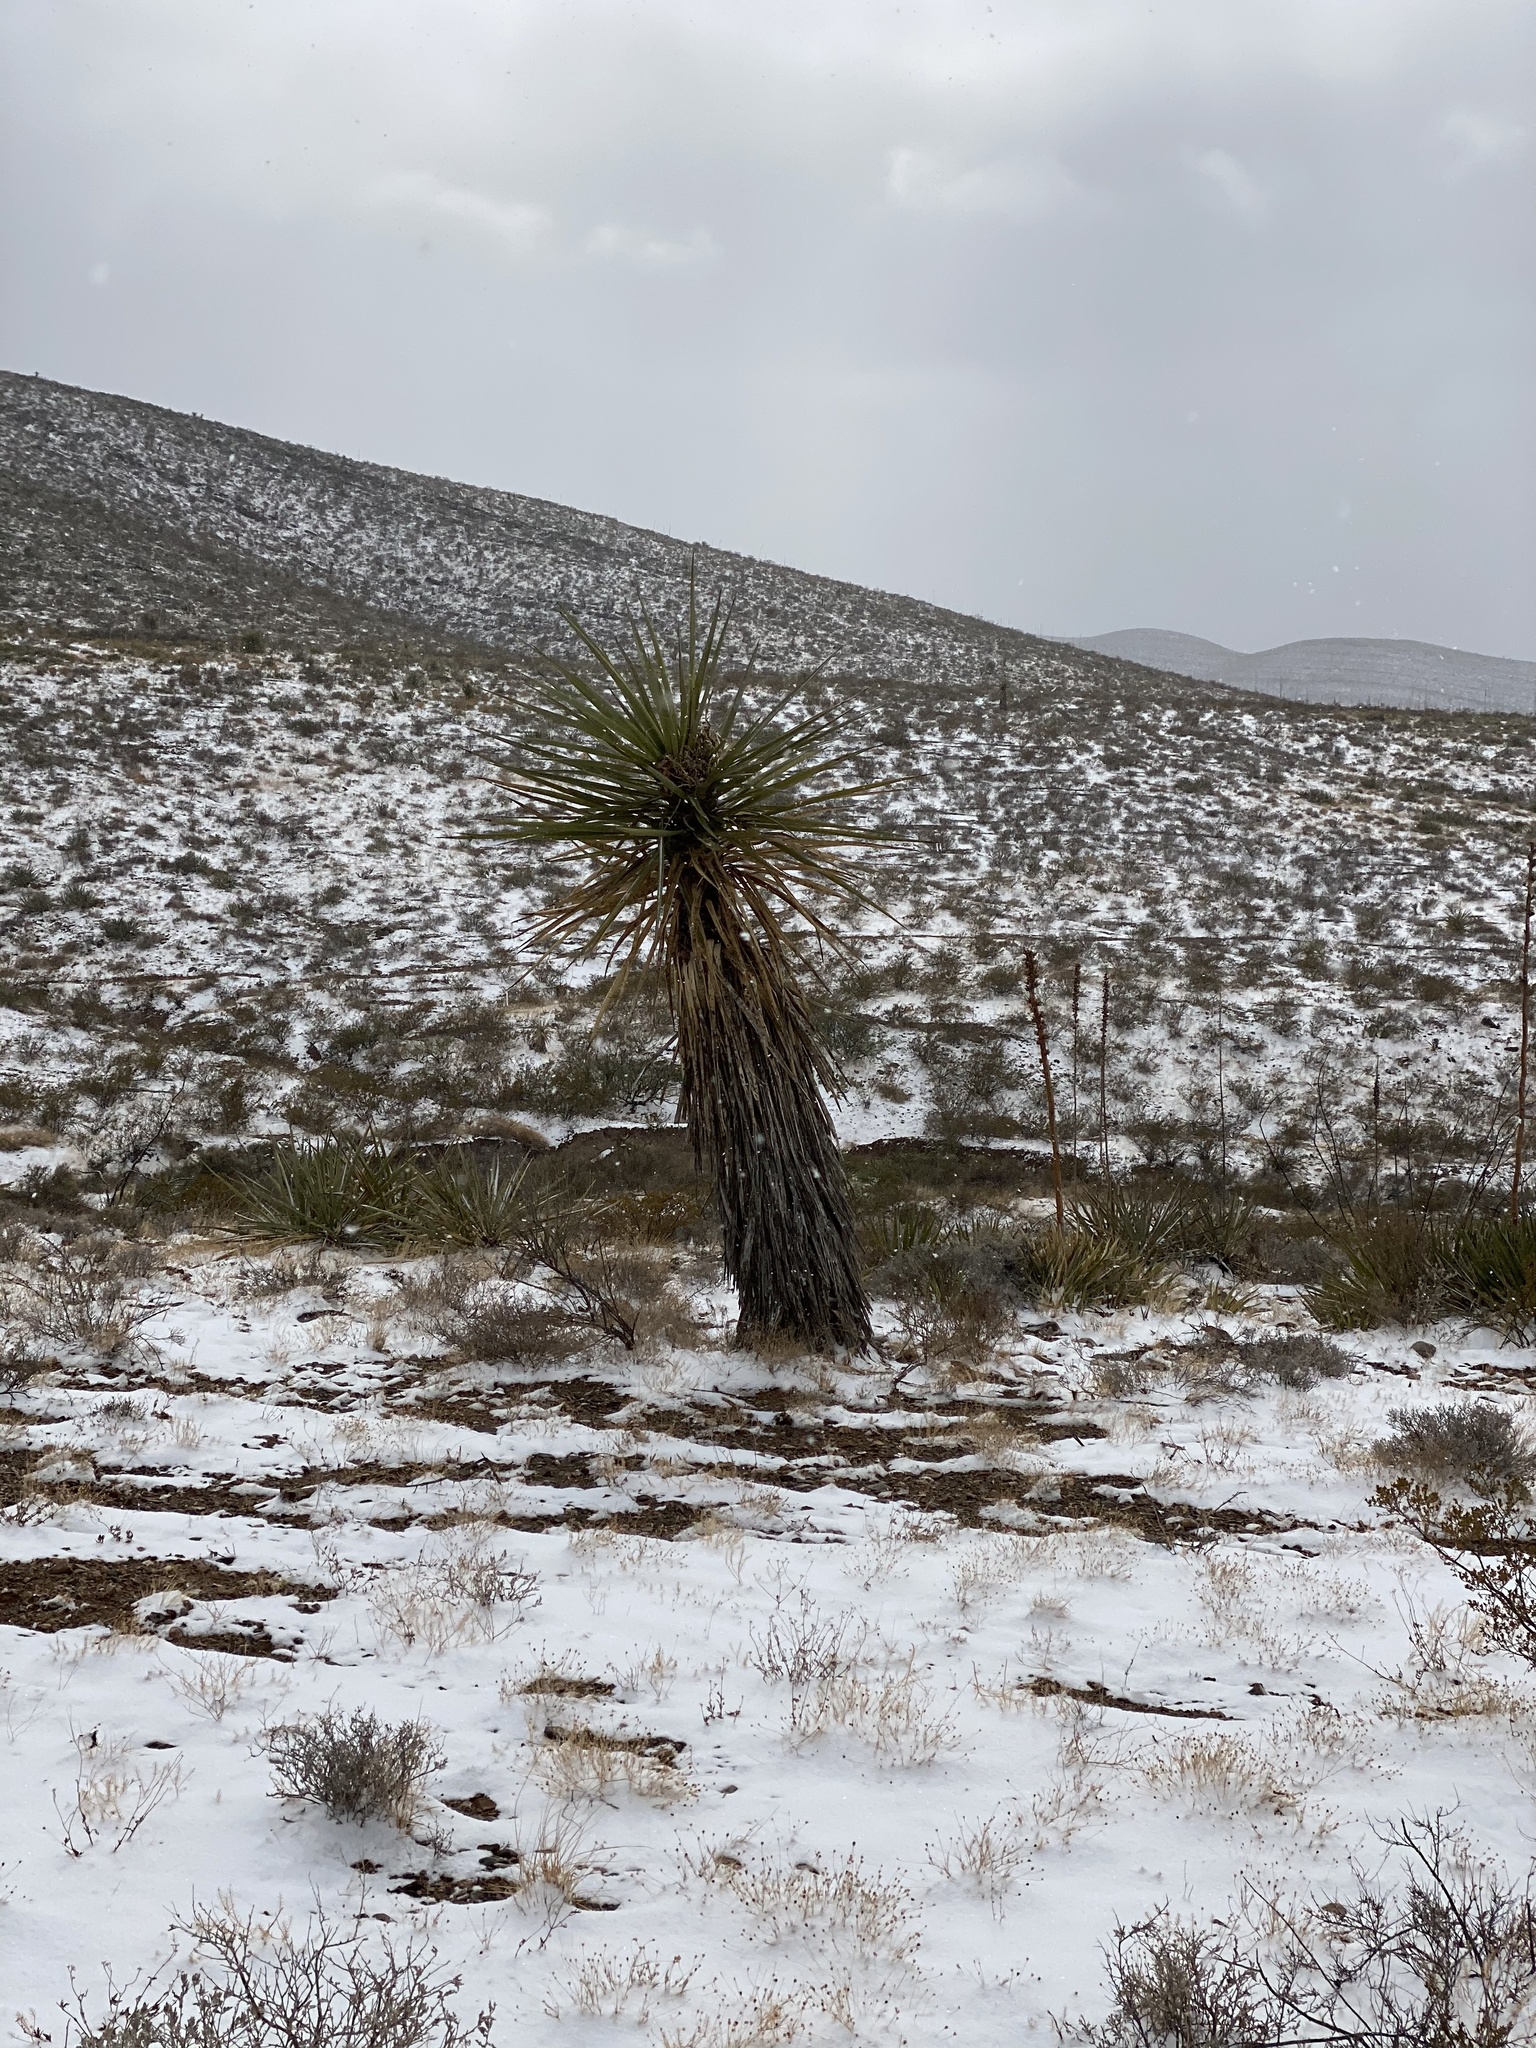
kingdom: Plantae
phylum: Tracheophyta
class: Liliopsida
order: Asparagales
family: Asparagaceae
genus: Yucca
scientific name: Yucca treculiana
